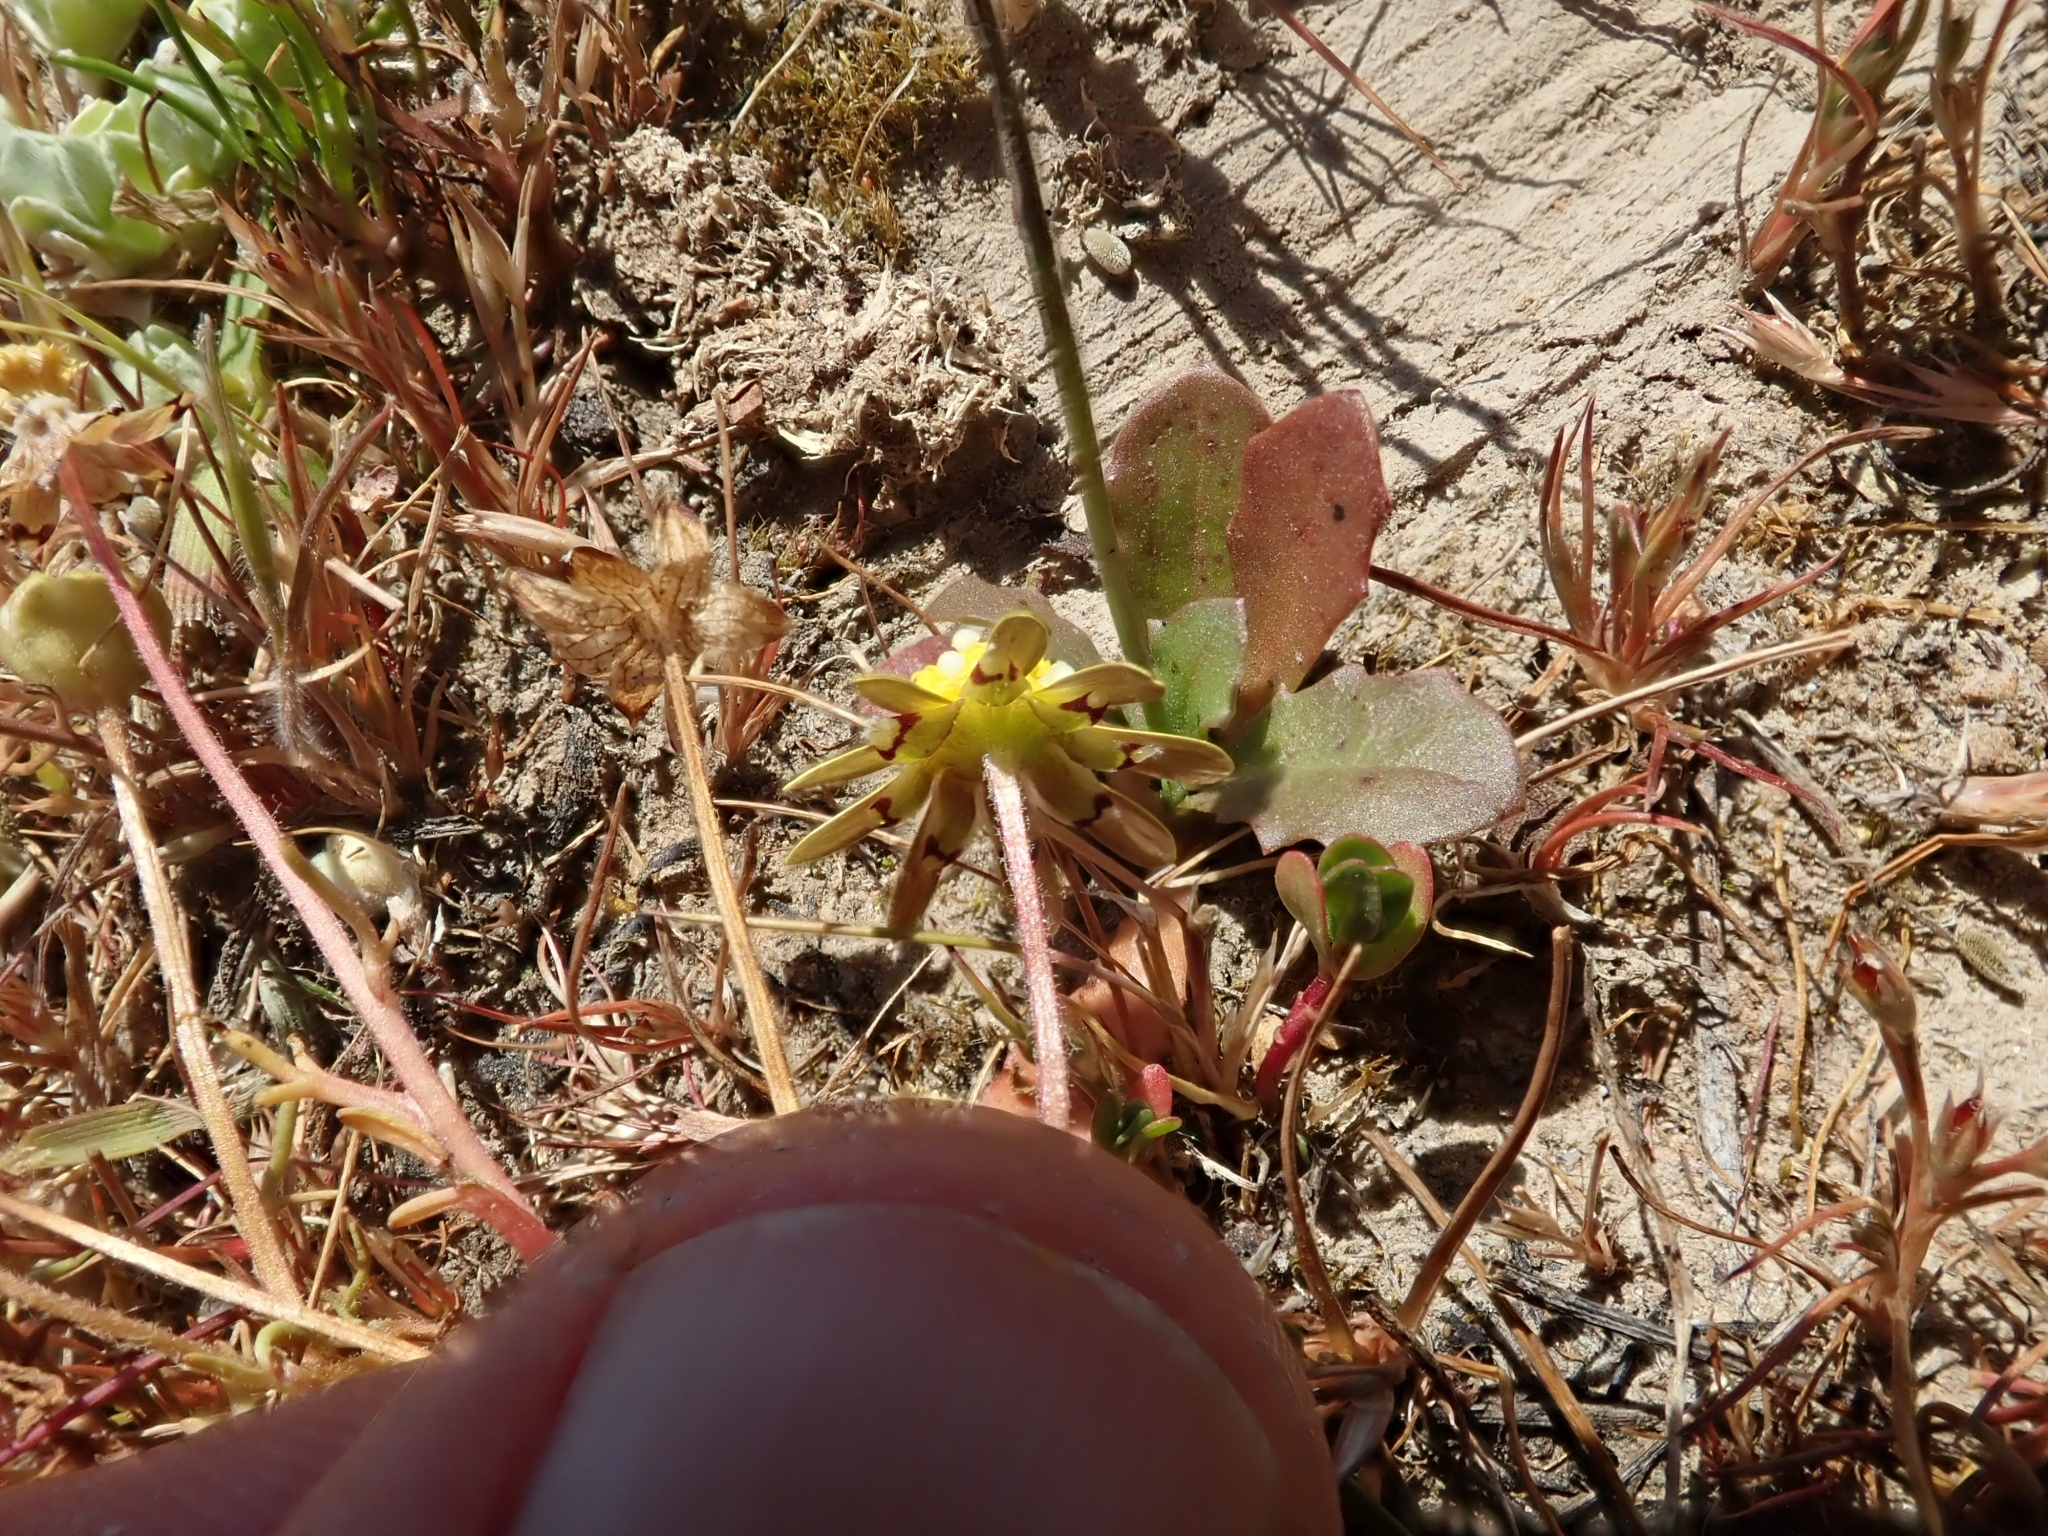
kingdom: Plantae
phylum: Tracheophyta
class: Magnoliopsida
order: Asterales
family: Asteraceae
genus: Blennosperma
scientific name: Blennosperma nanum
